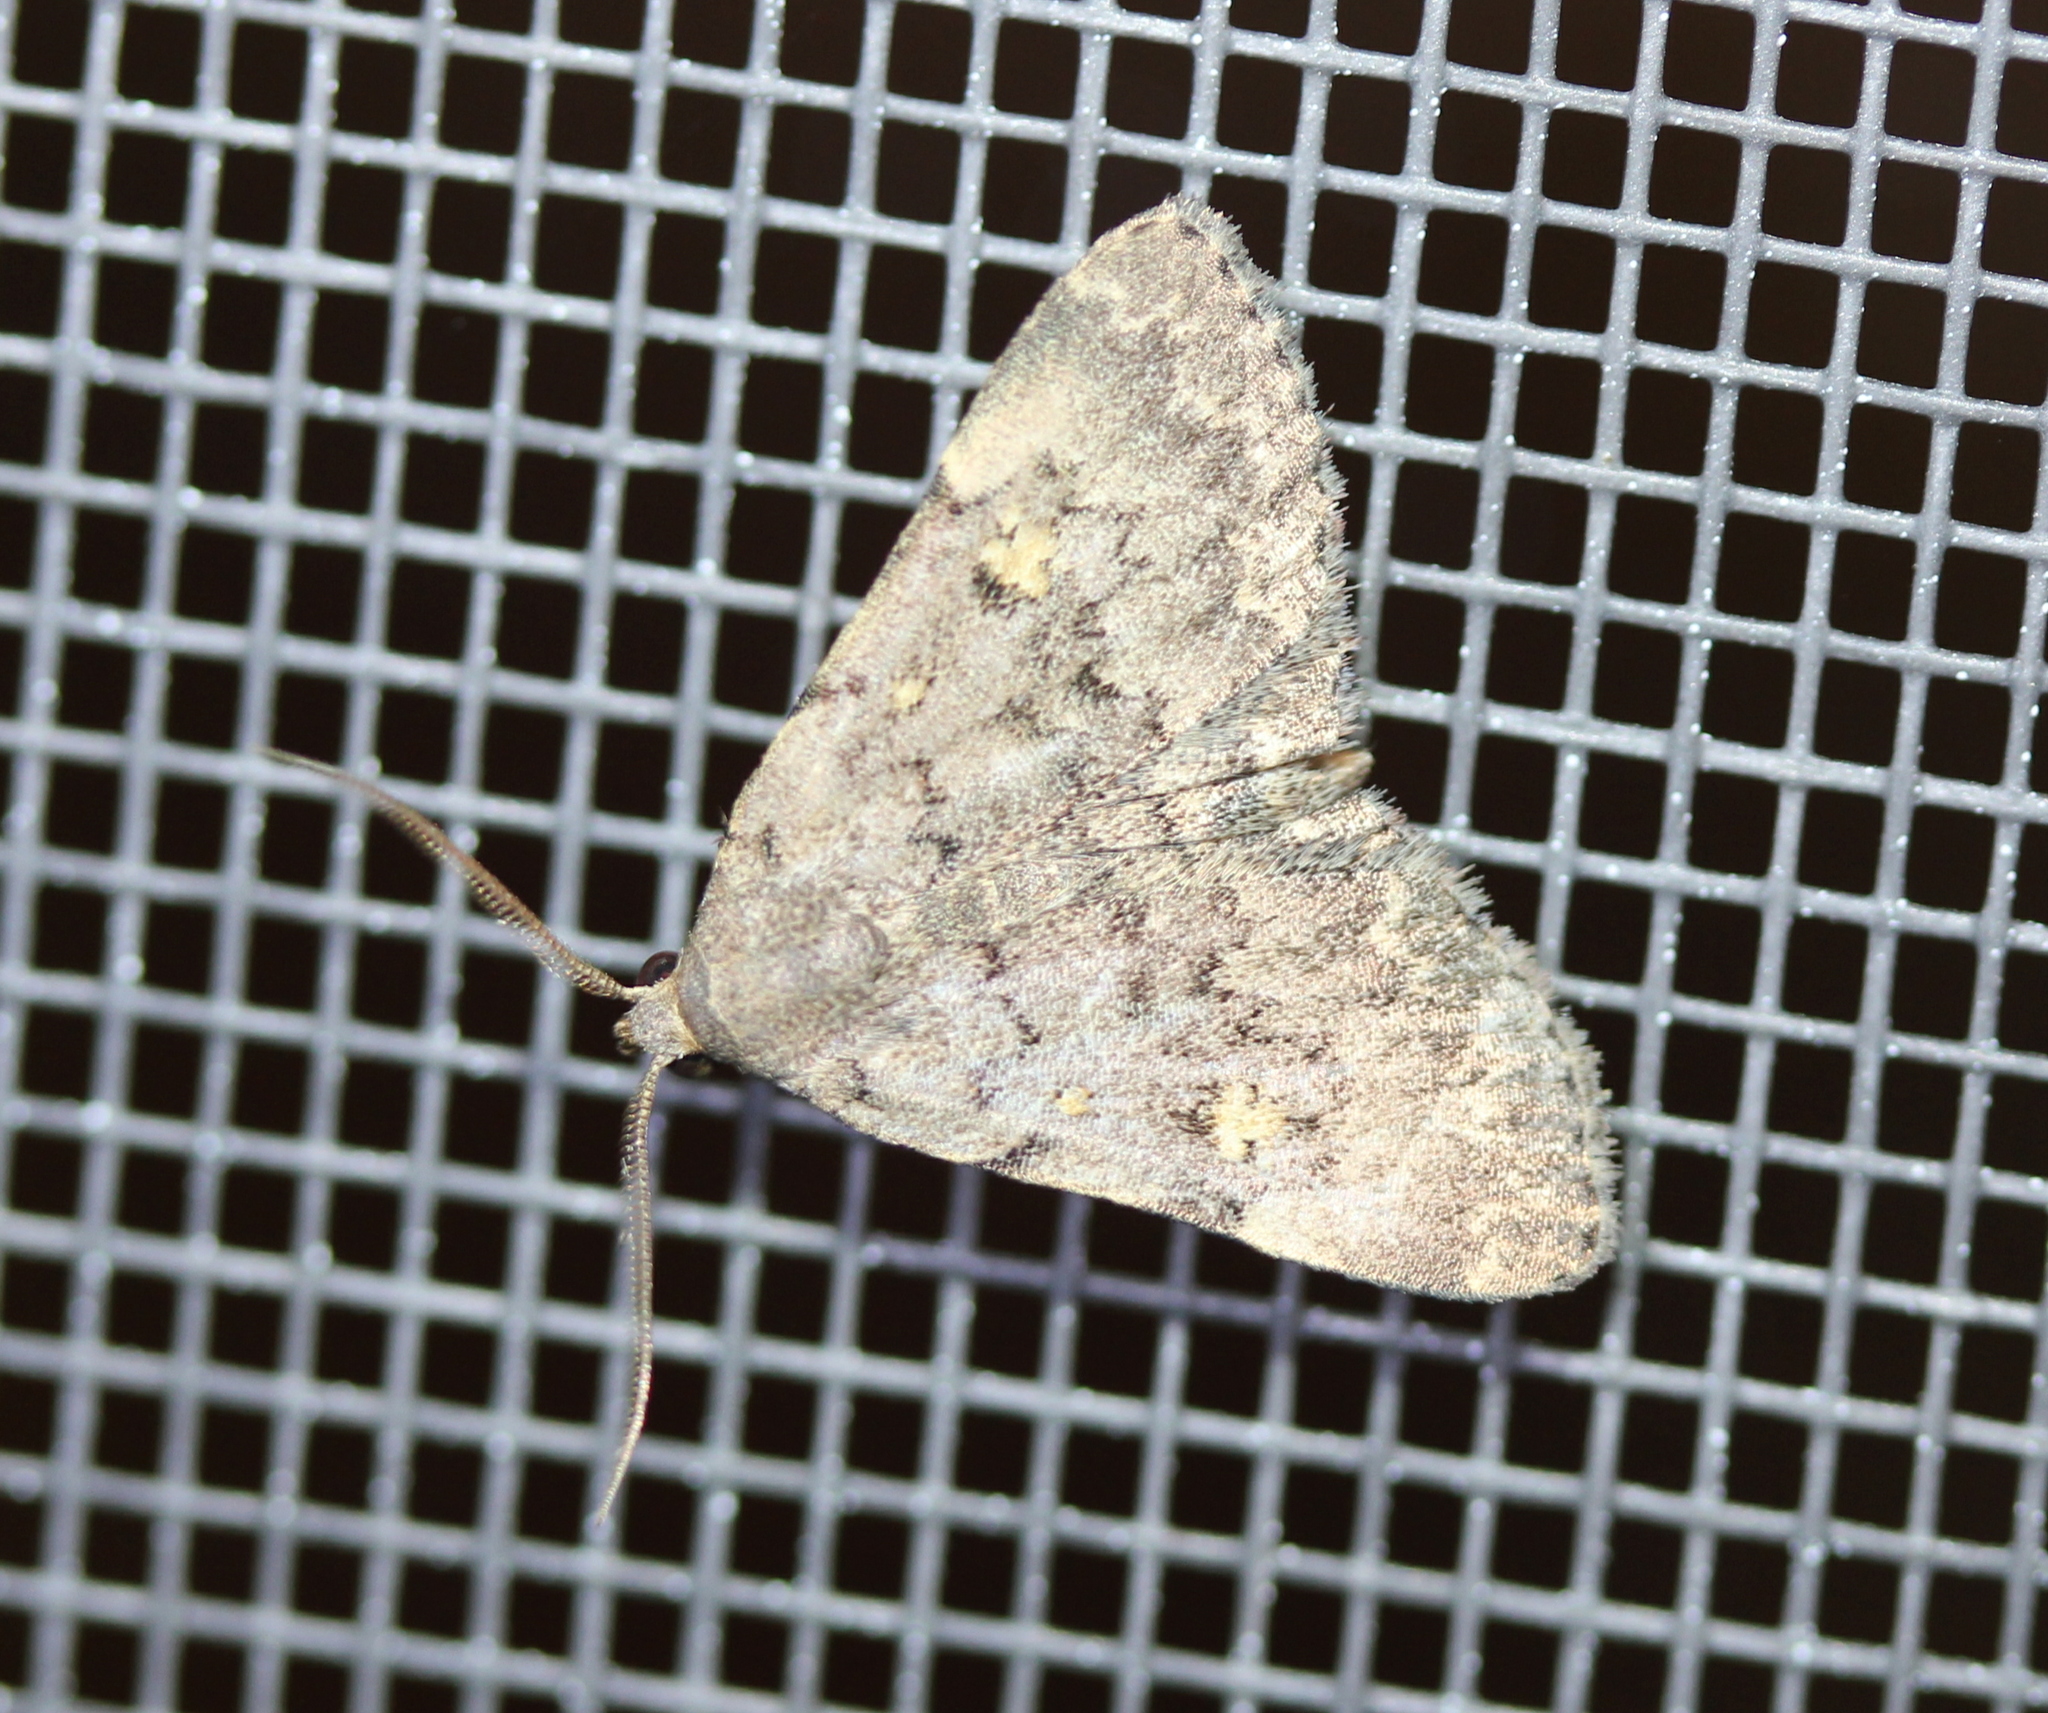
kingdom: Animalia
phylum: Arthropoda
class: Insecta
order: Lepidoptera
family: Erebidae
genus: Idia
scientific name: Idia aemula
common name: Common idia moth
